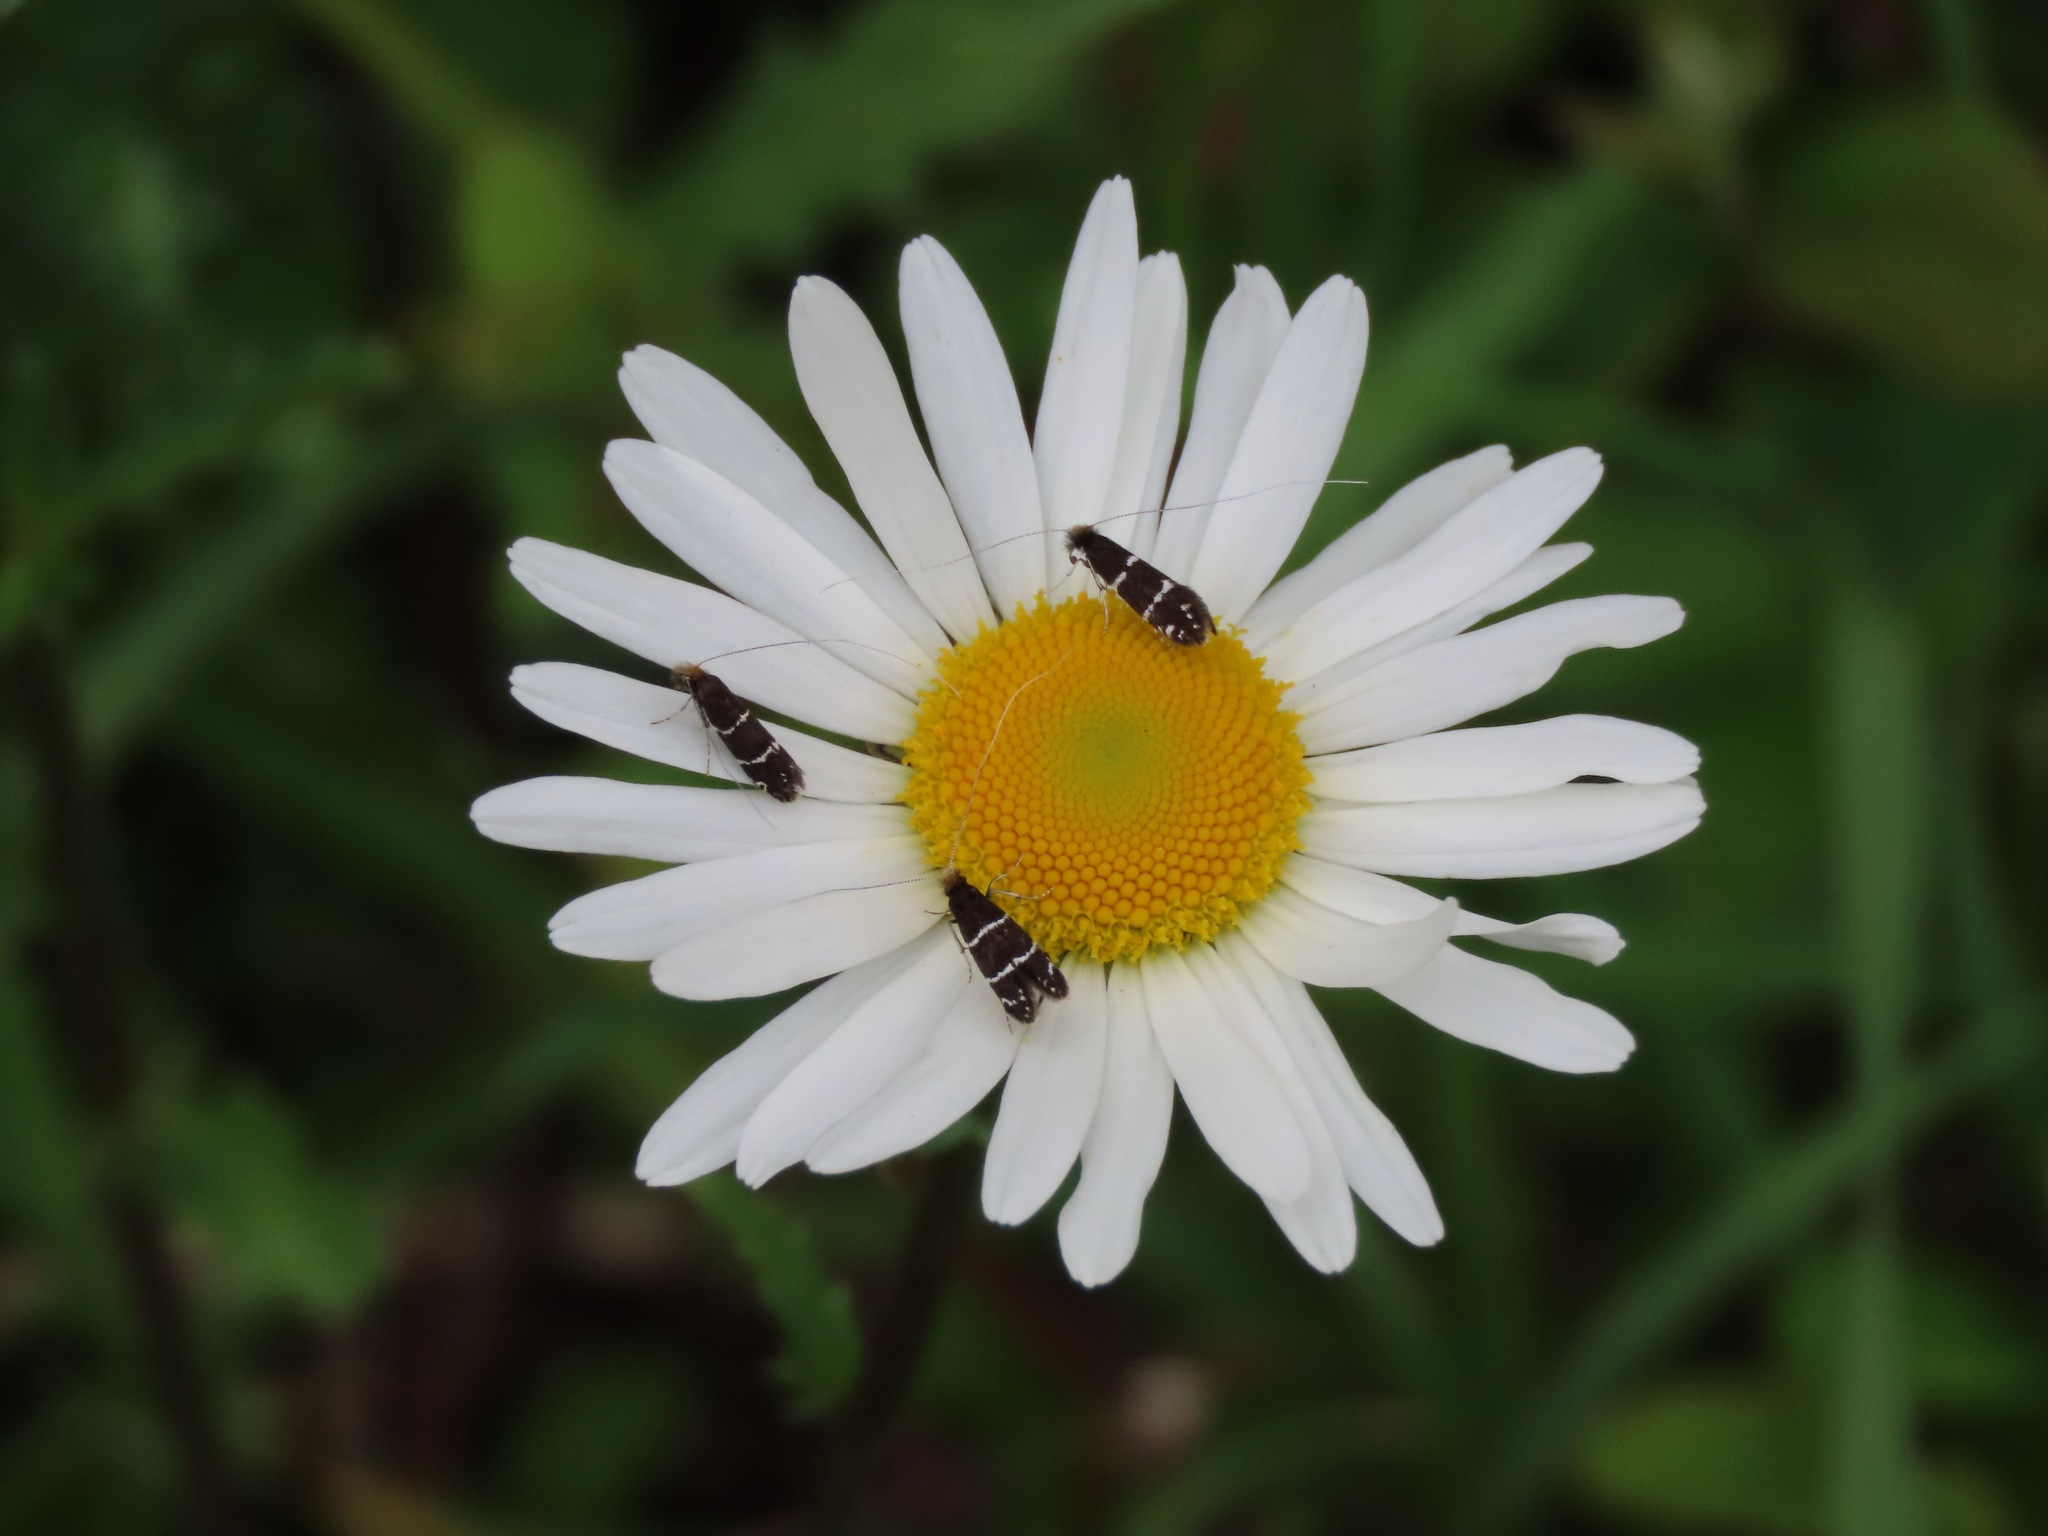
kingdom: Animalia
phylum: Arthropoda
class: Insecta
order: Lepidoptera
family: Adelidae
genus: Adela
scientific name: Adela septentrionella
